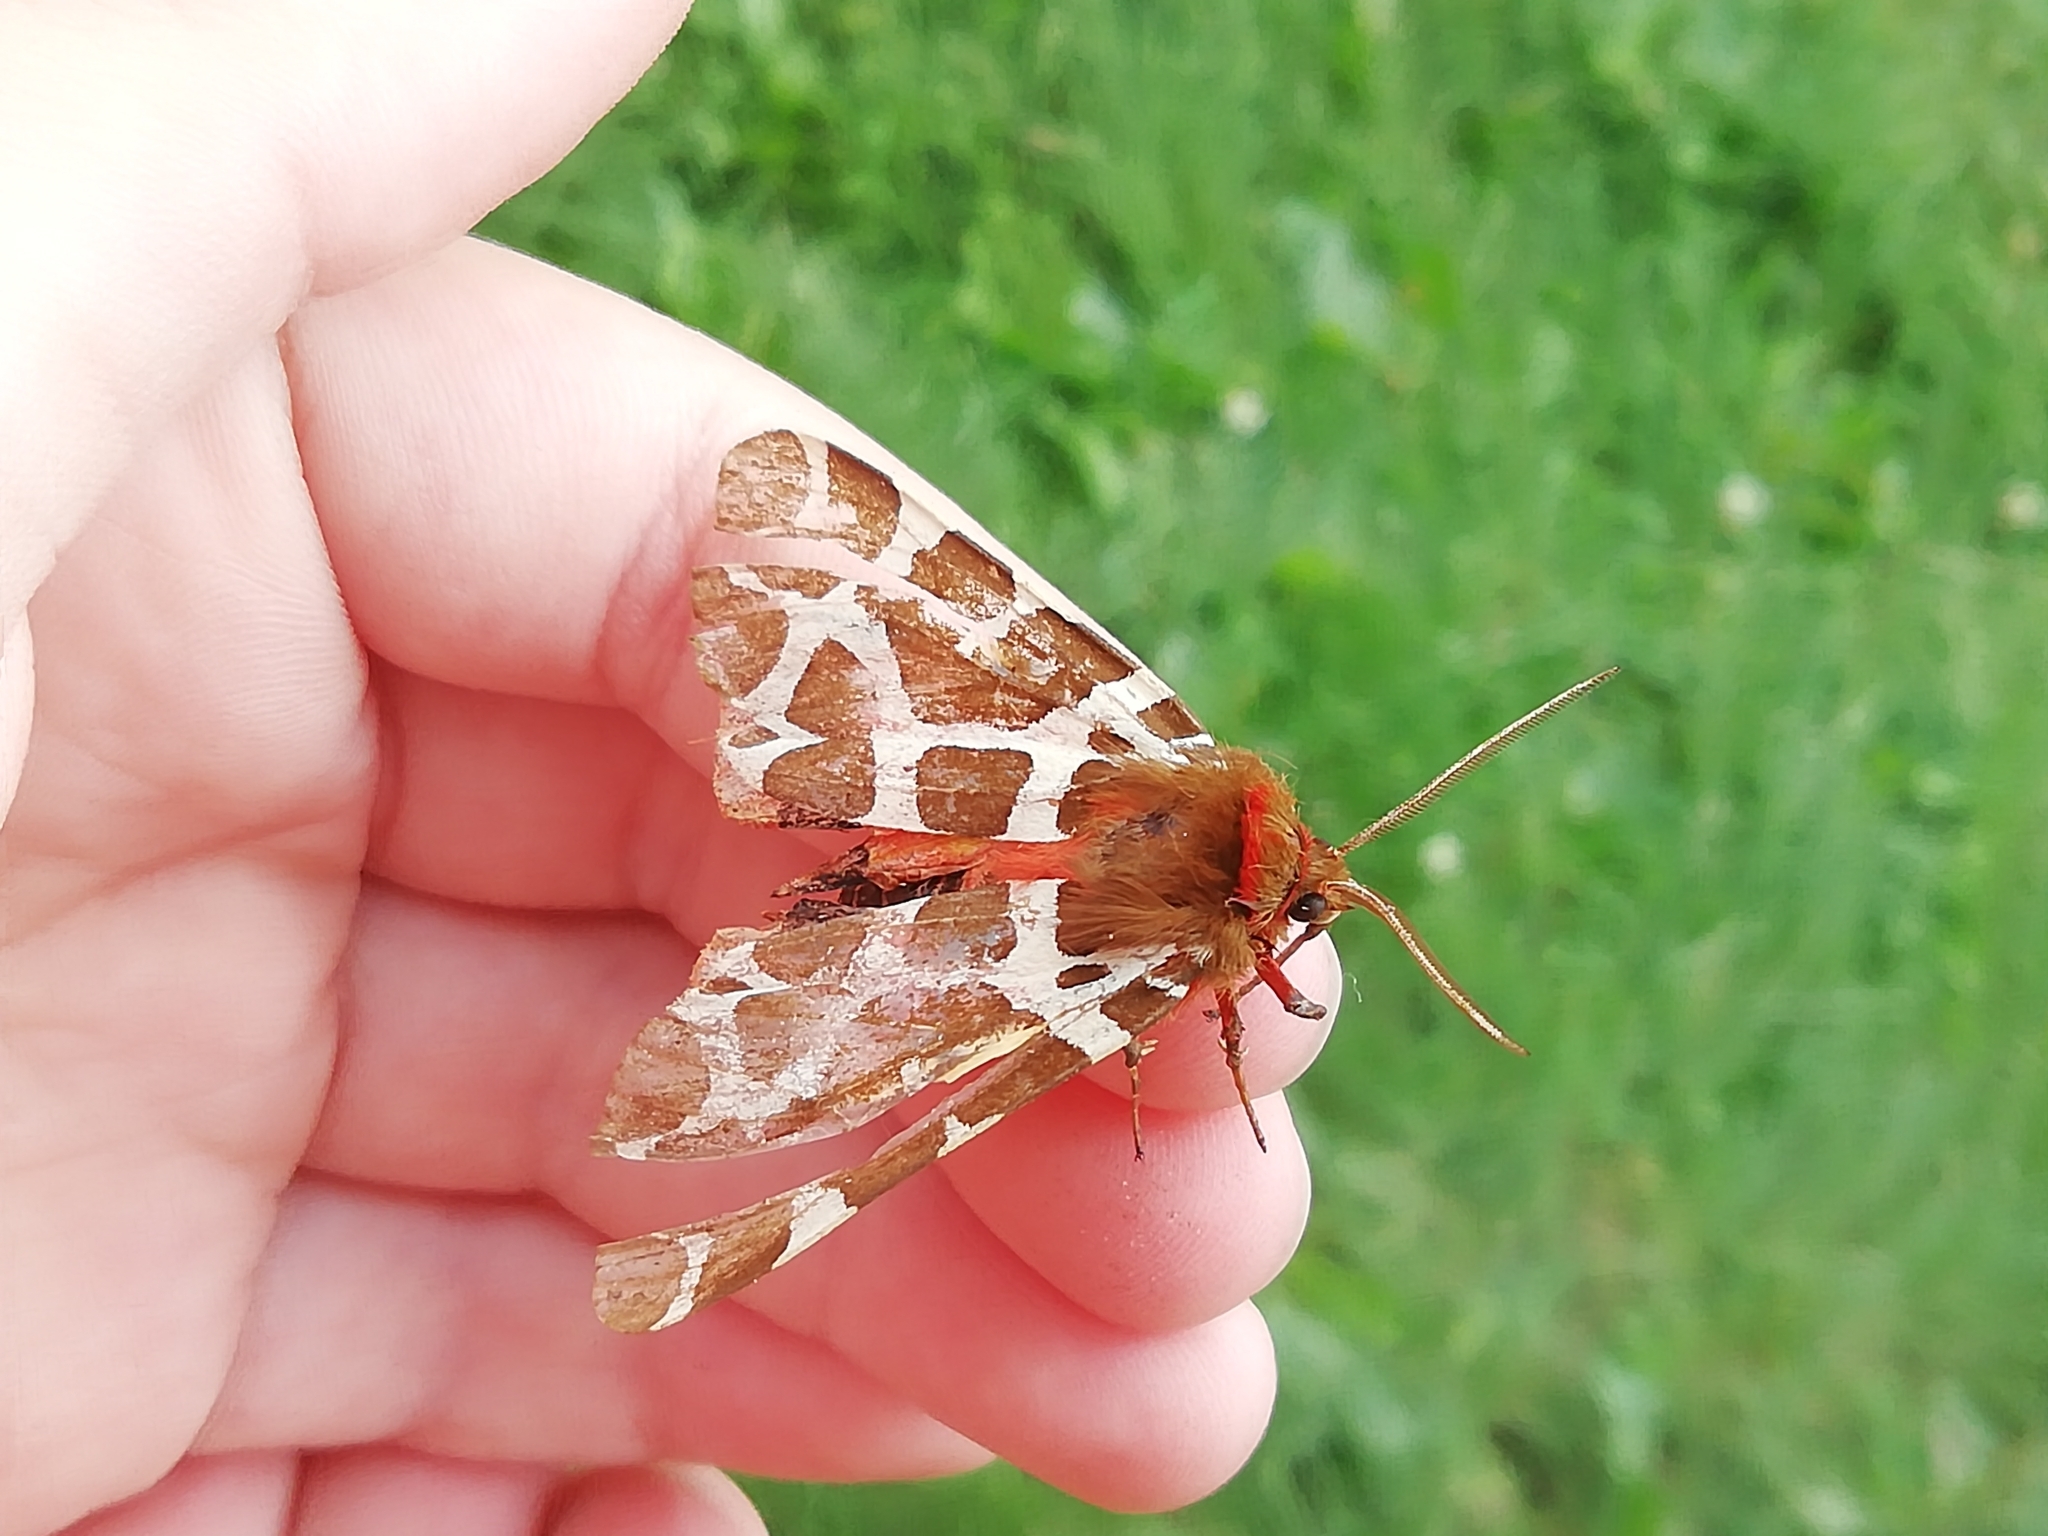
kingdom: Animalia
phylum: Arthropoda
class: Insecta
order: Lepidoptera
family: Erebidae
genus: Arctia
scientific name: Arctia caja
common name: Garden tiger
